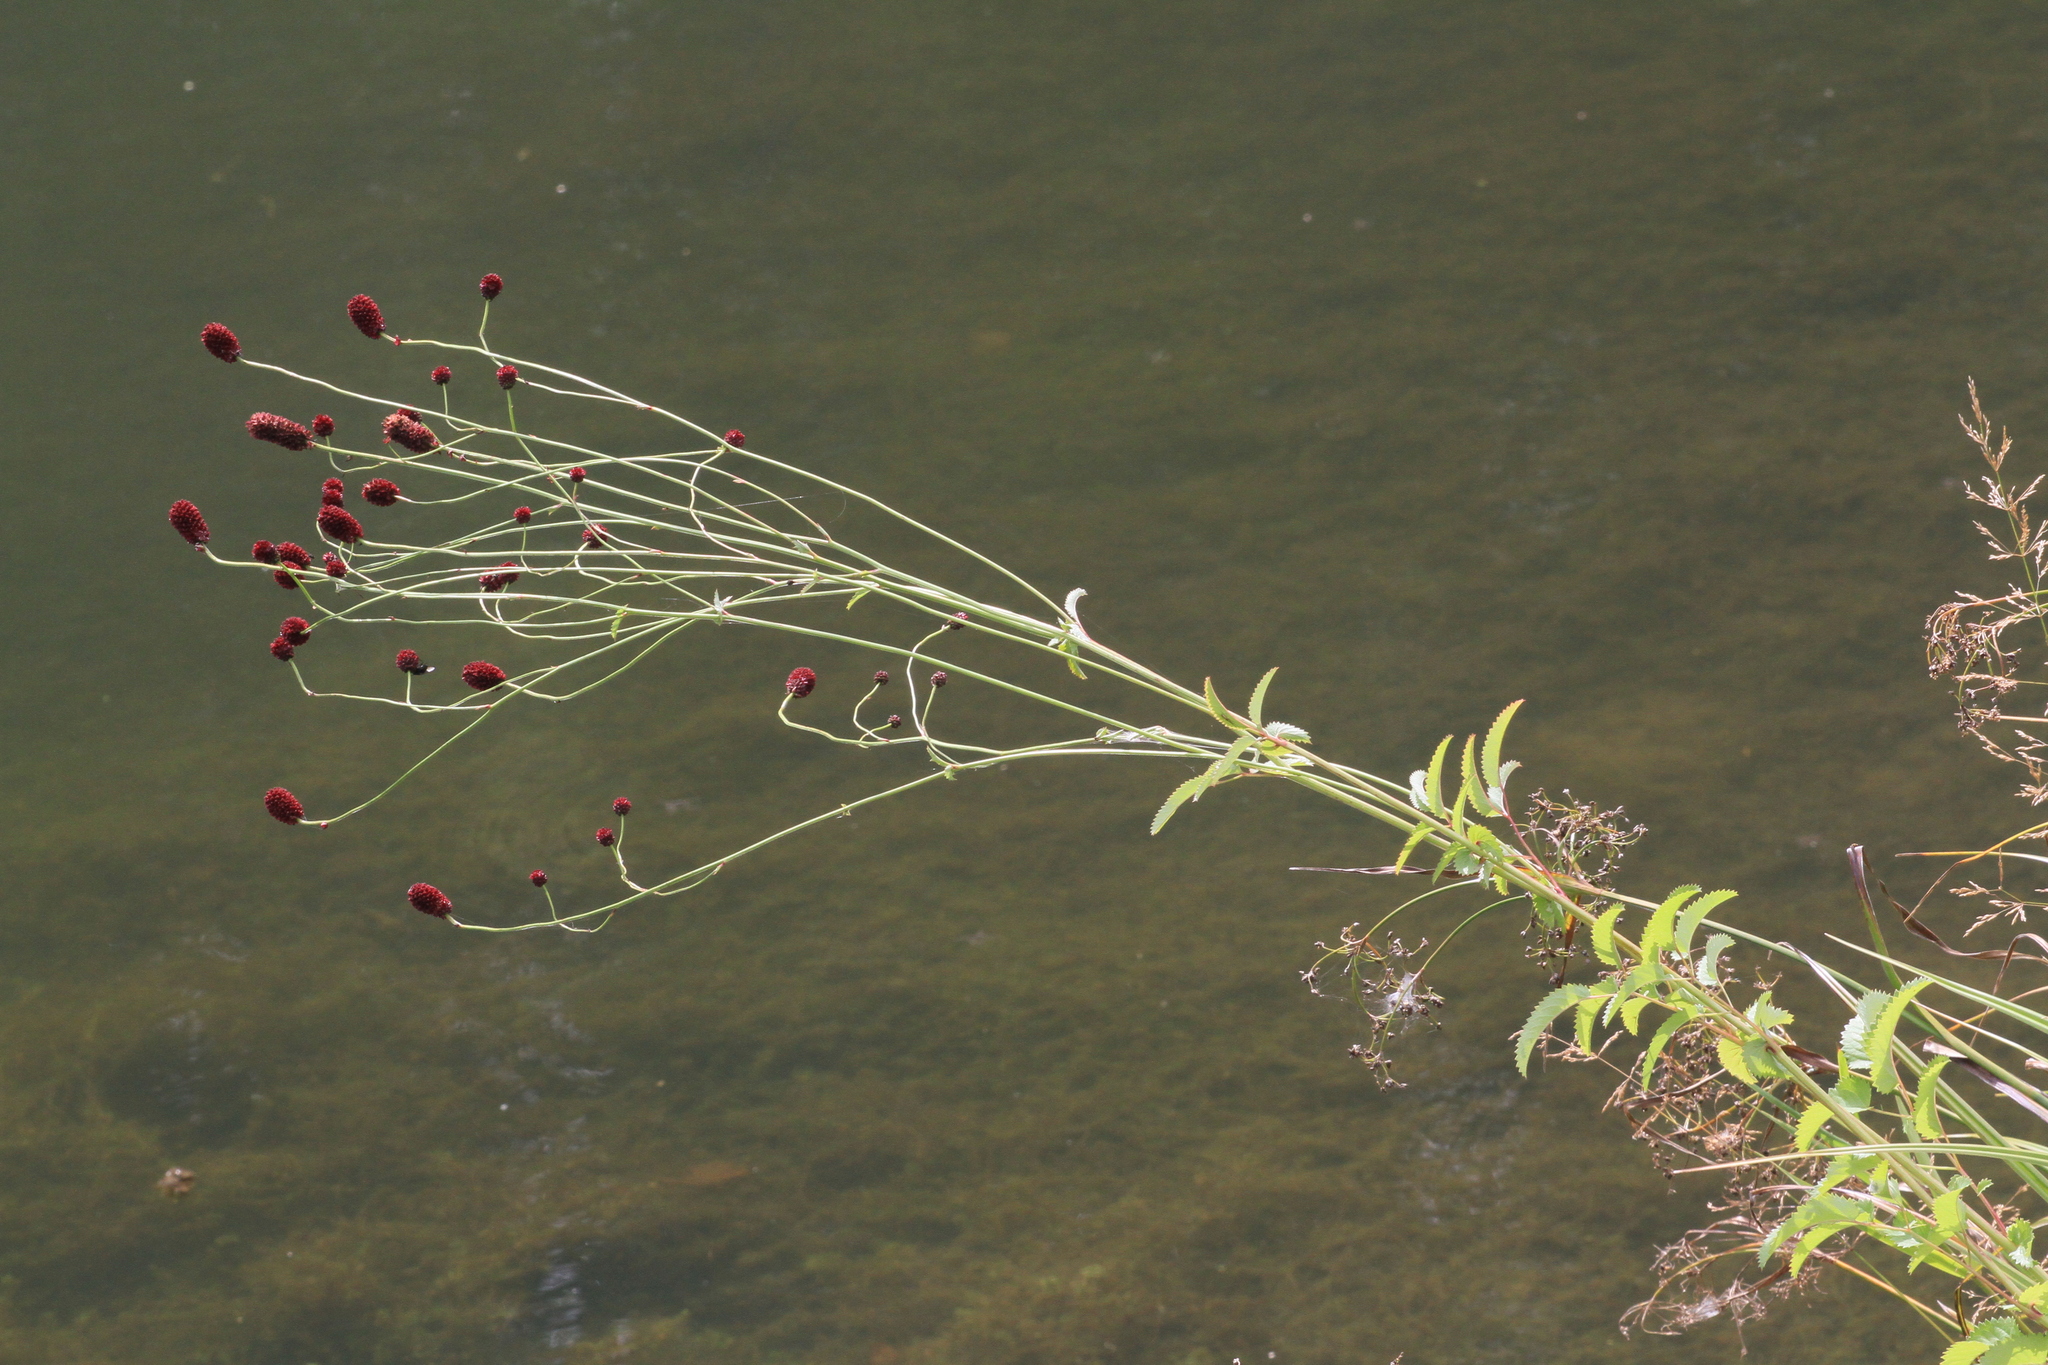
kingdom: Plantae
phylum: Tracheophyta
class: Magnoliopsida
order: Rosales
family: Rosaceae
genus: Sanguisorba
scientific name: Sanguisorba officinalis
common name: Great burnet
